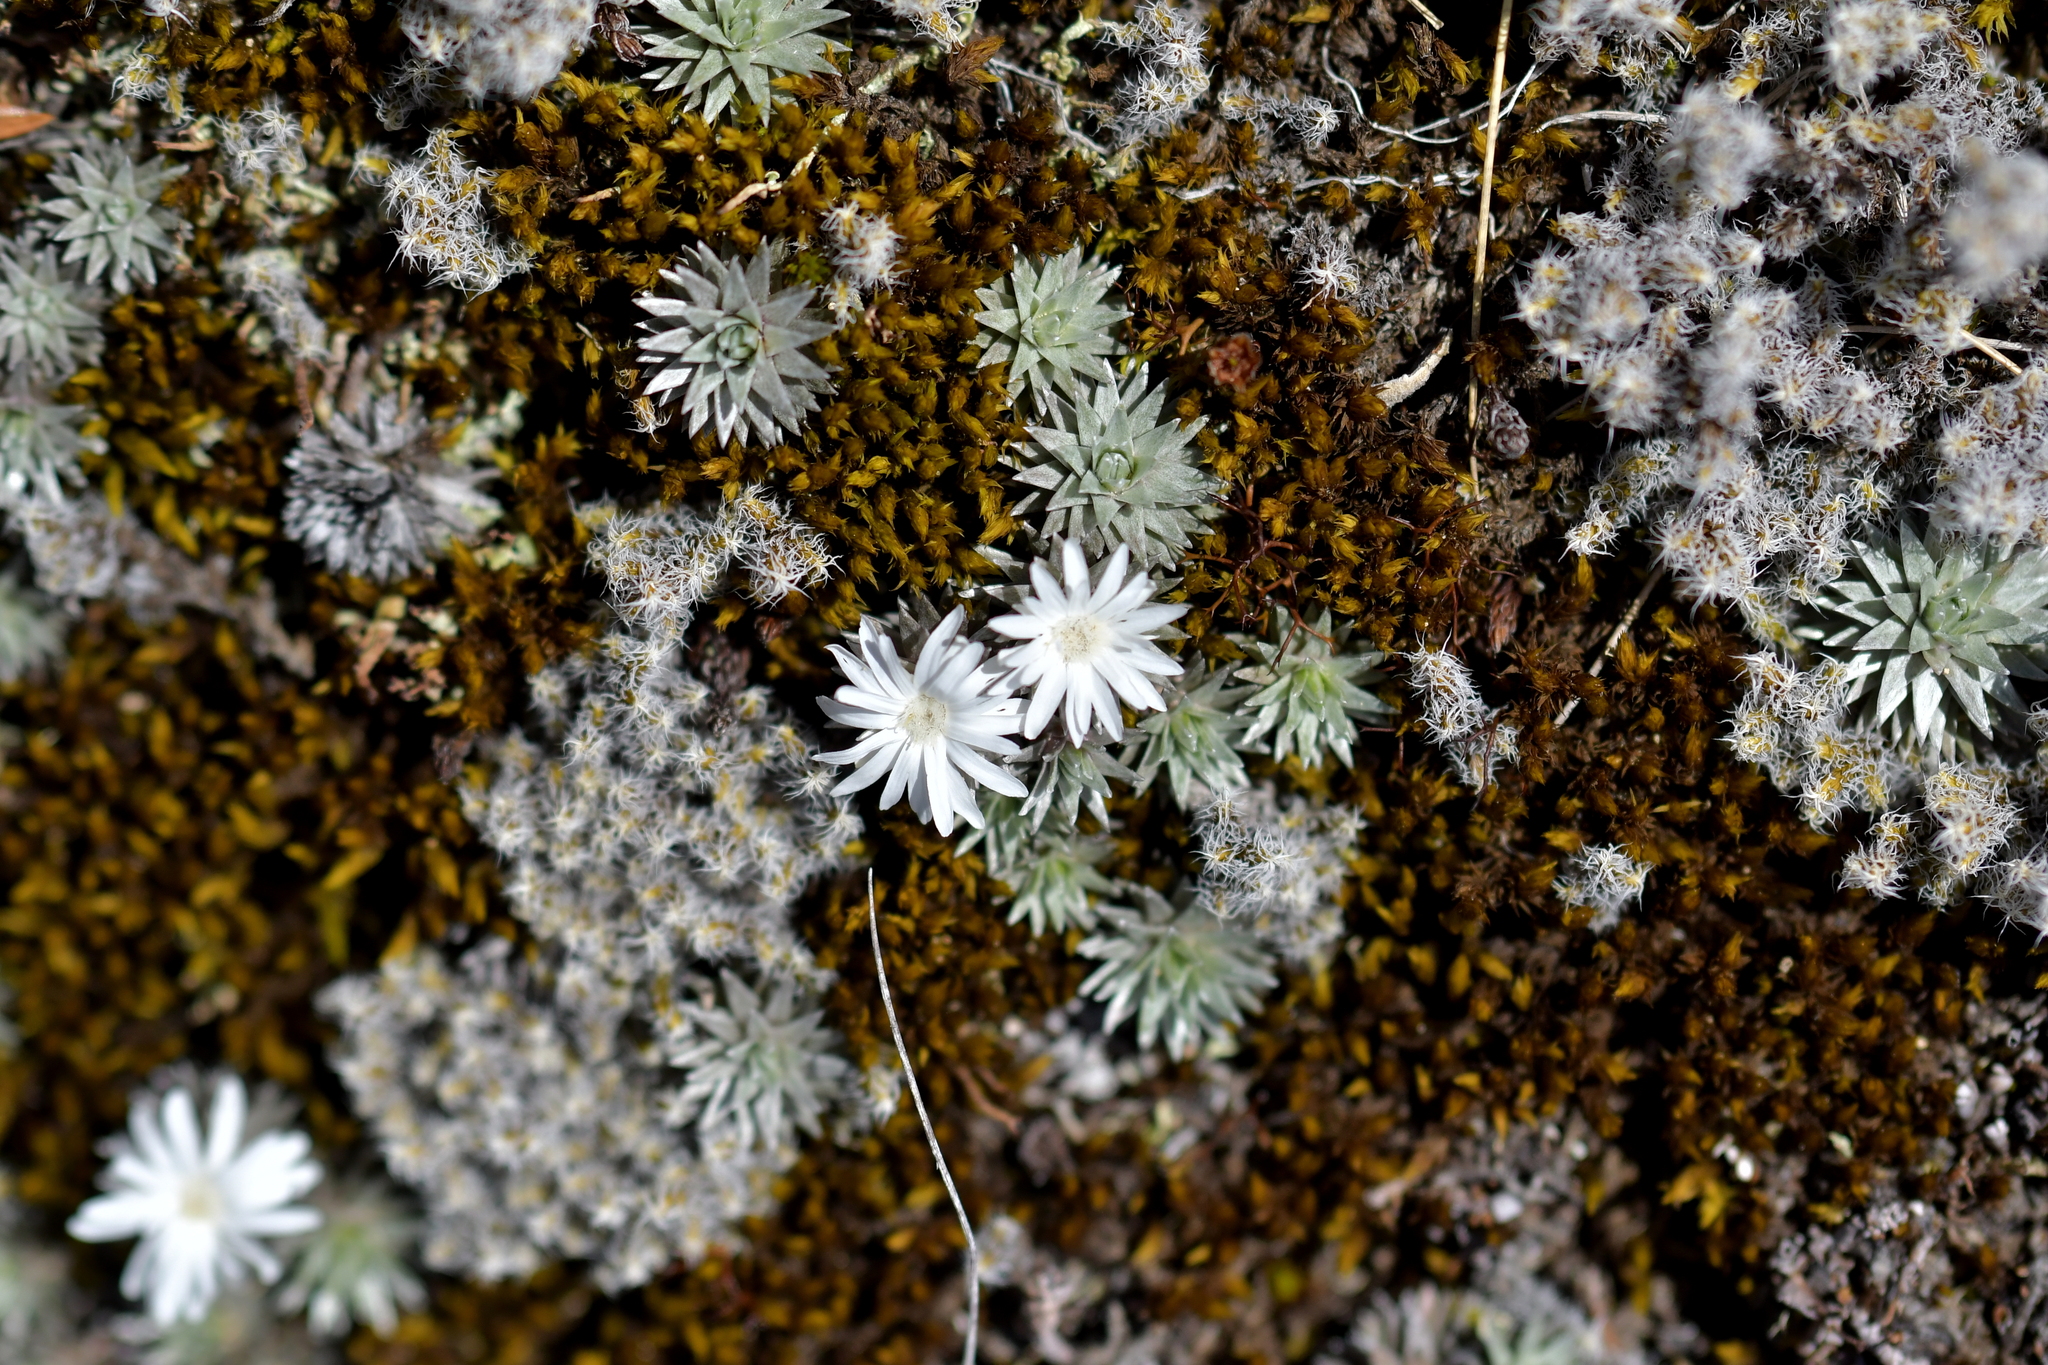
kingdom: Plantae
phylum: Tracheophyta
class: Magnoliopsida
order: Asterales
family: Asteraceae
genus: Raoulia
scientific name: Raoulia grandiflora
